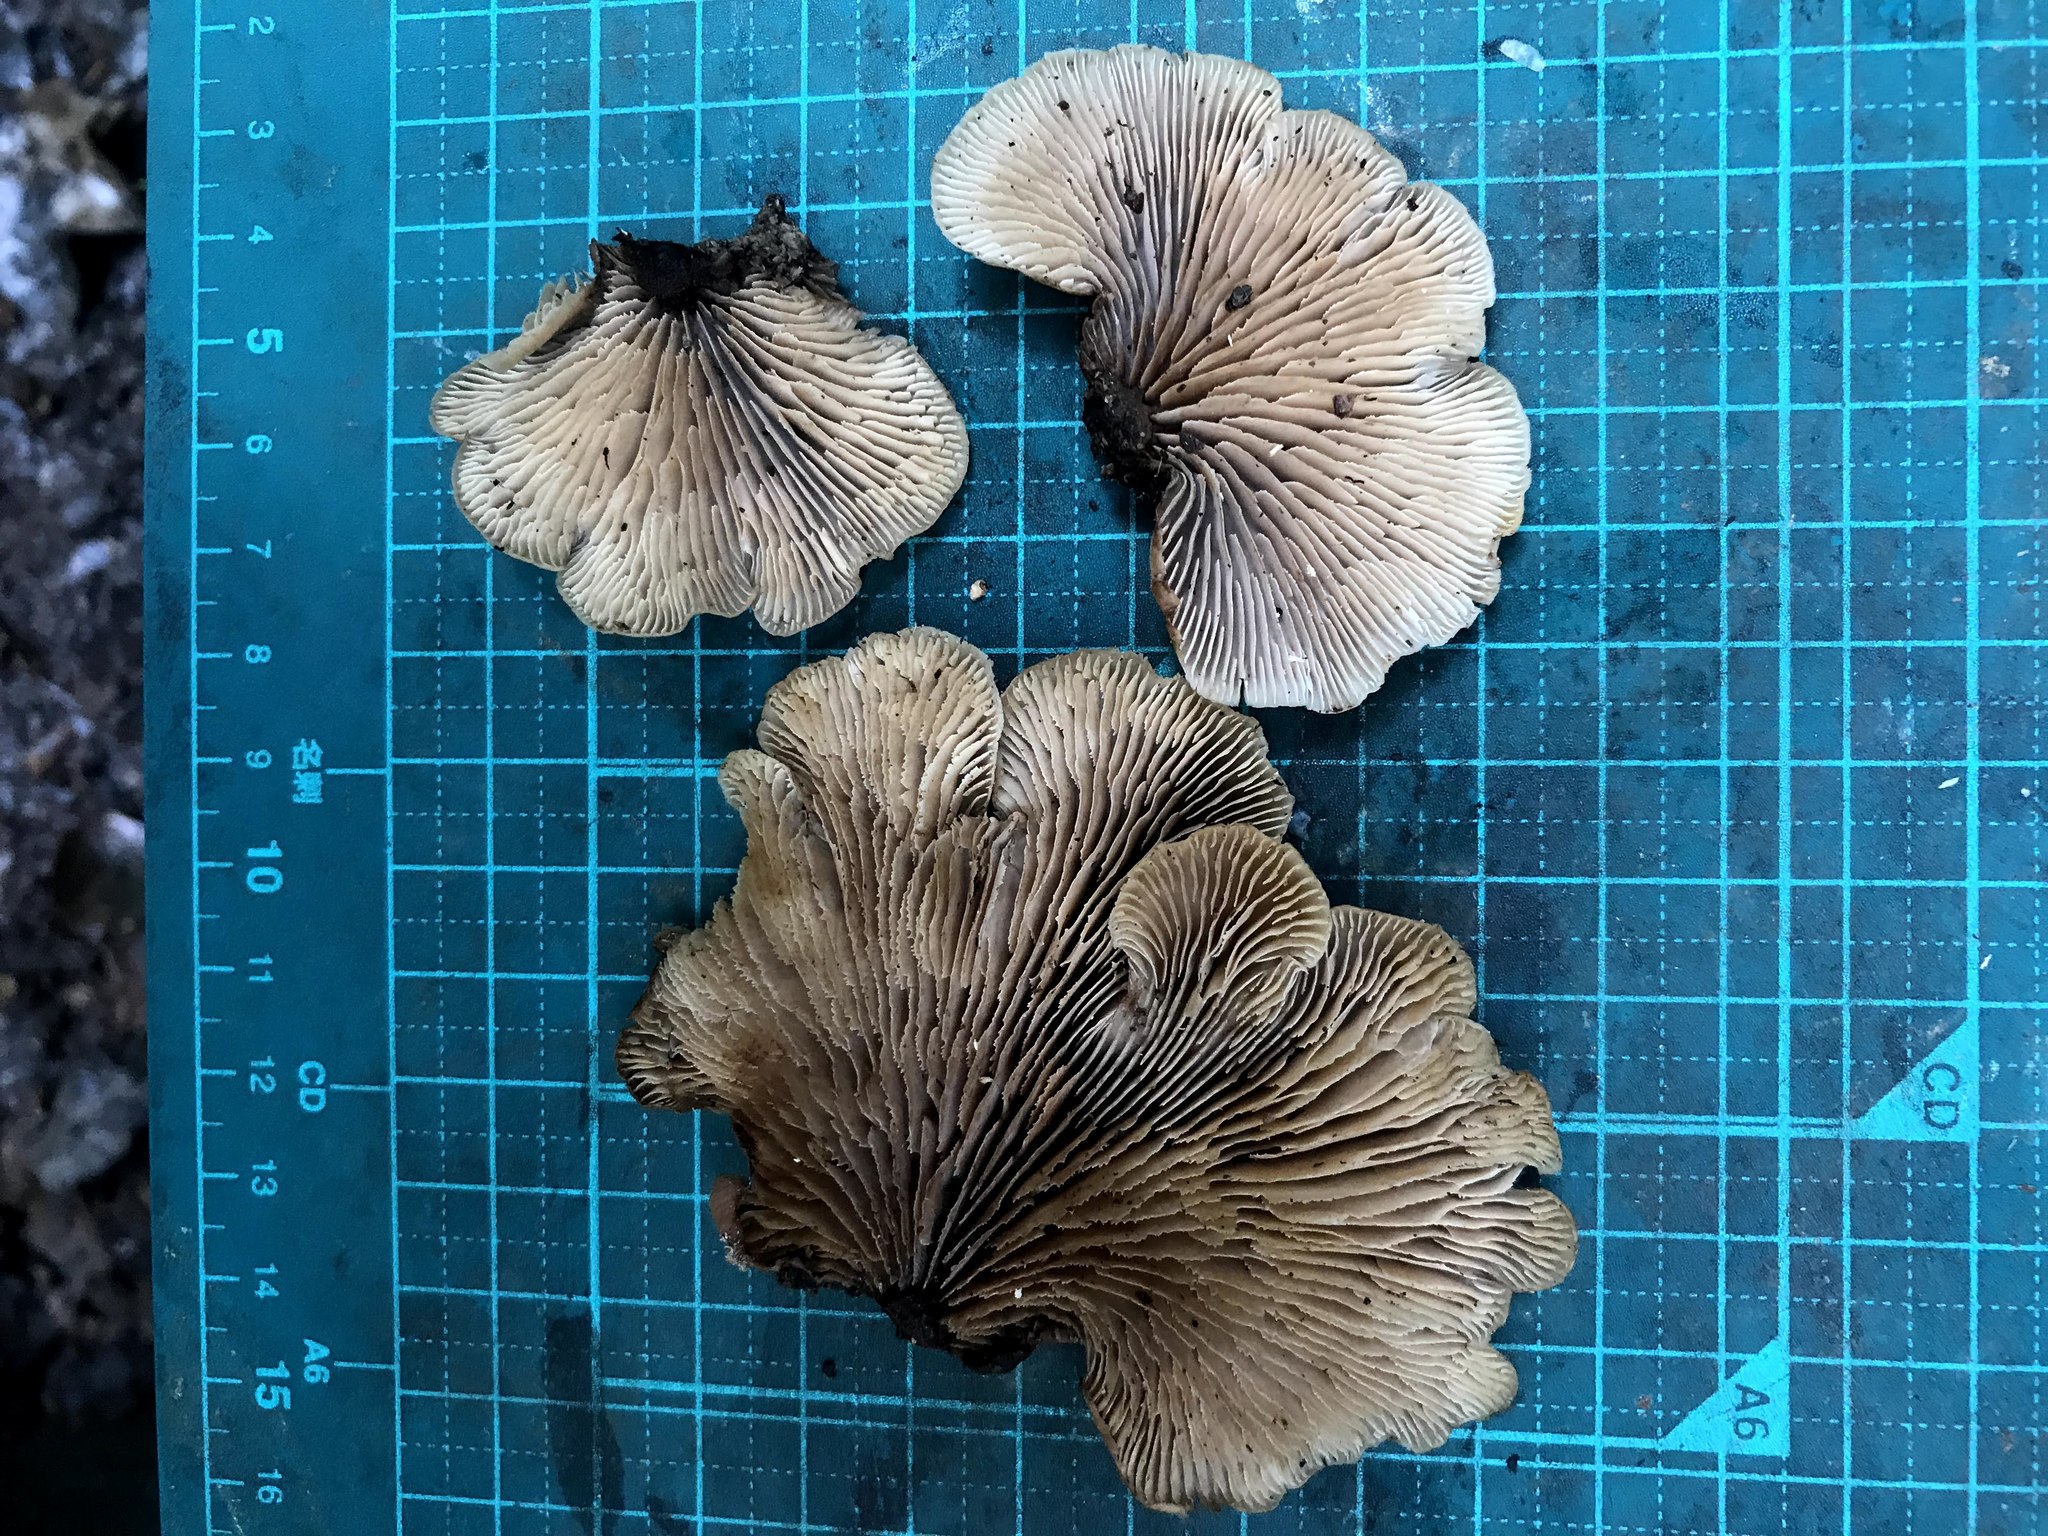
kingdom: Fungi
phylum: Basidiomycota
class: Agaricomycetes
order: Russulales
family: Auriscalpiaceae
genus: Lentinellus
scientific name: Lentinellus ursinus
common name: Bear lentinus
